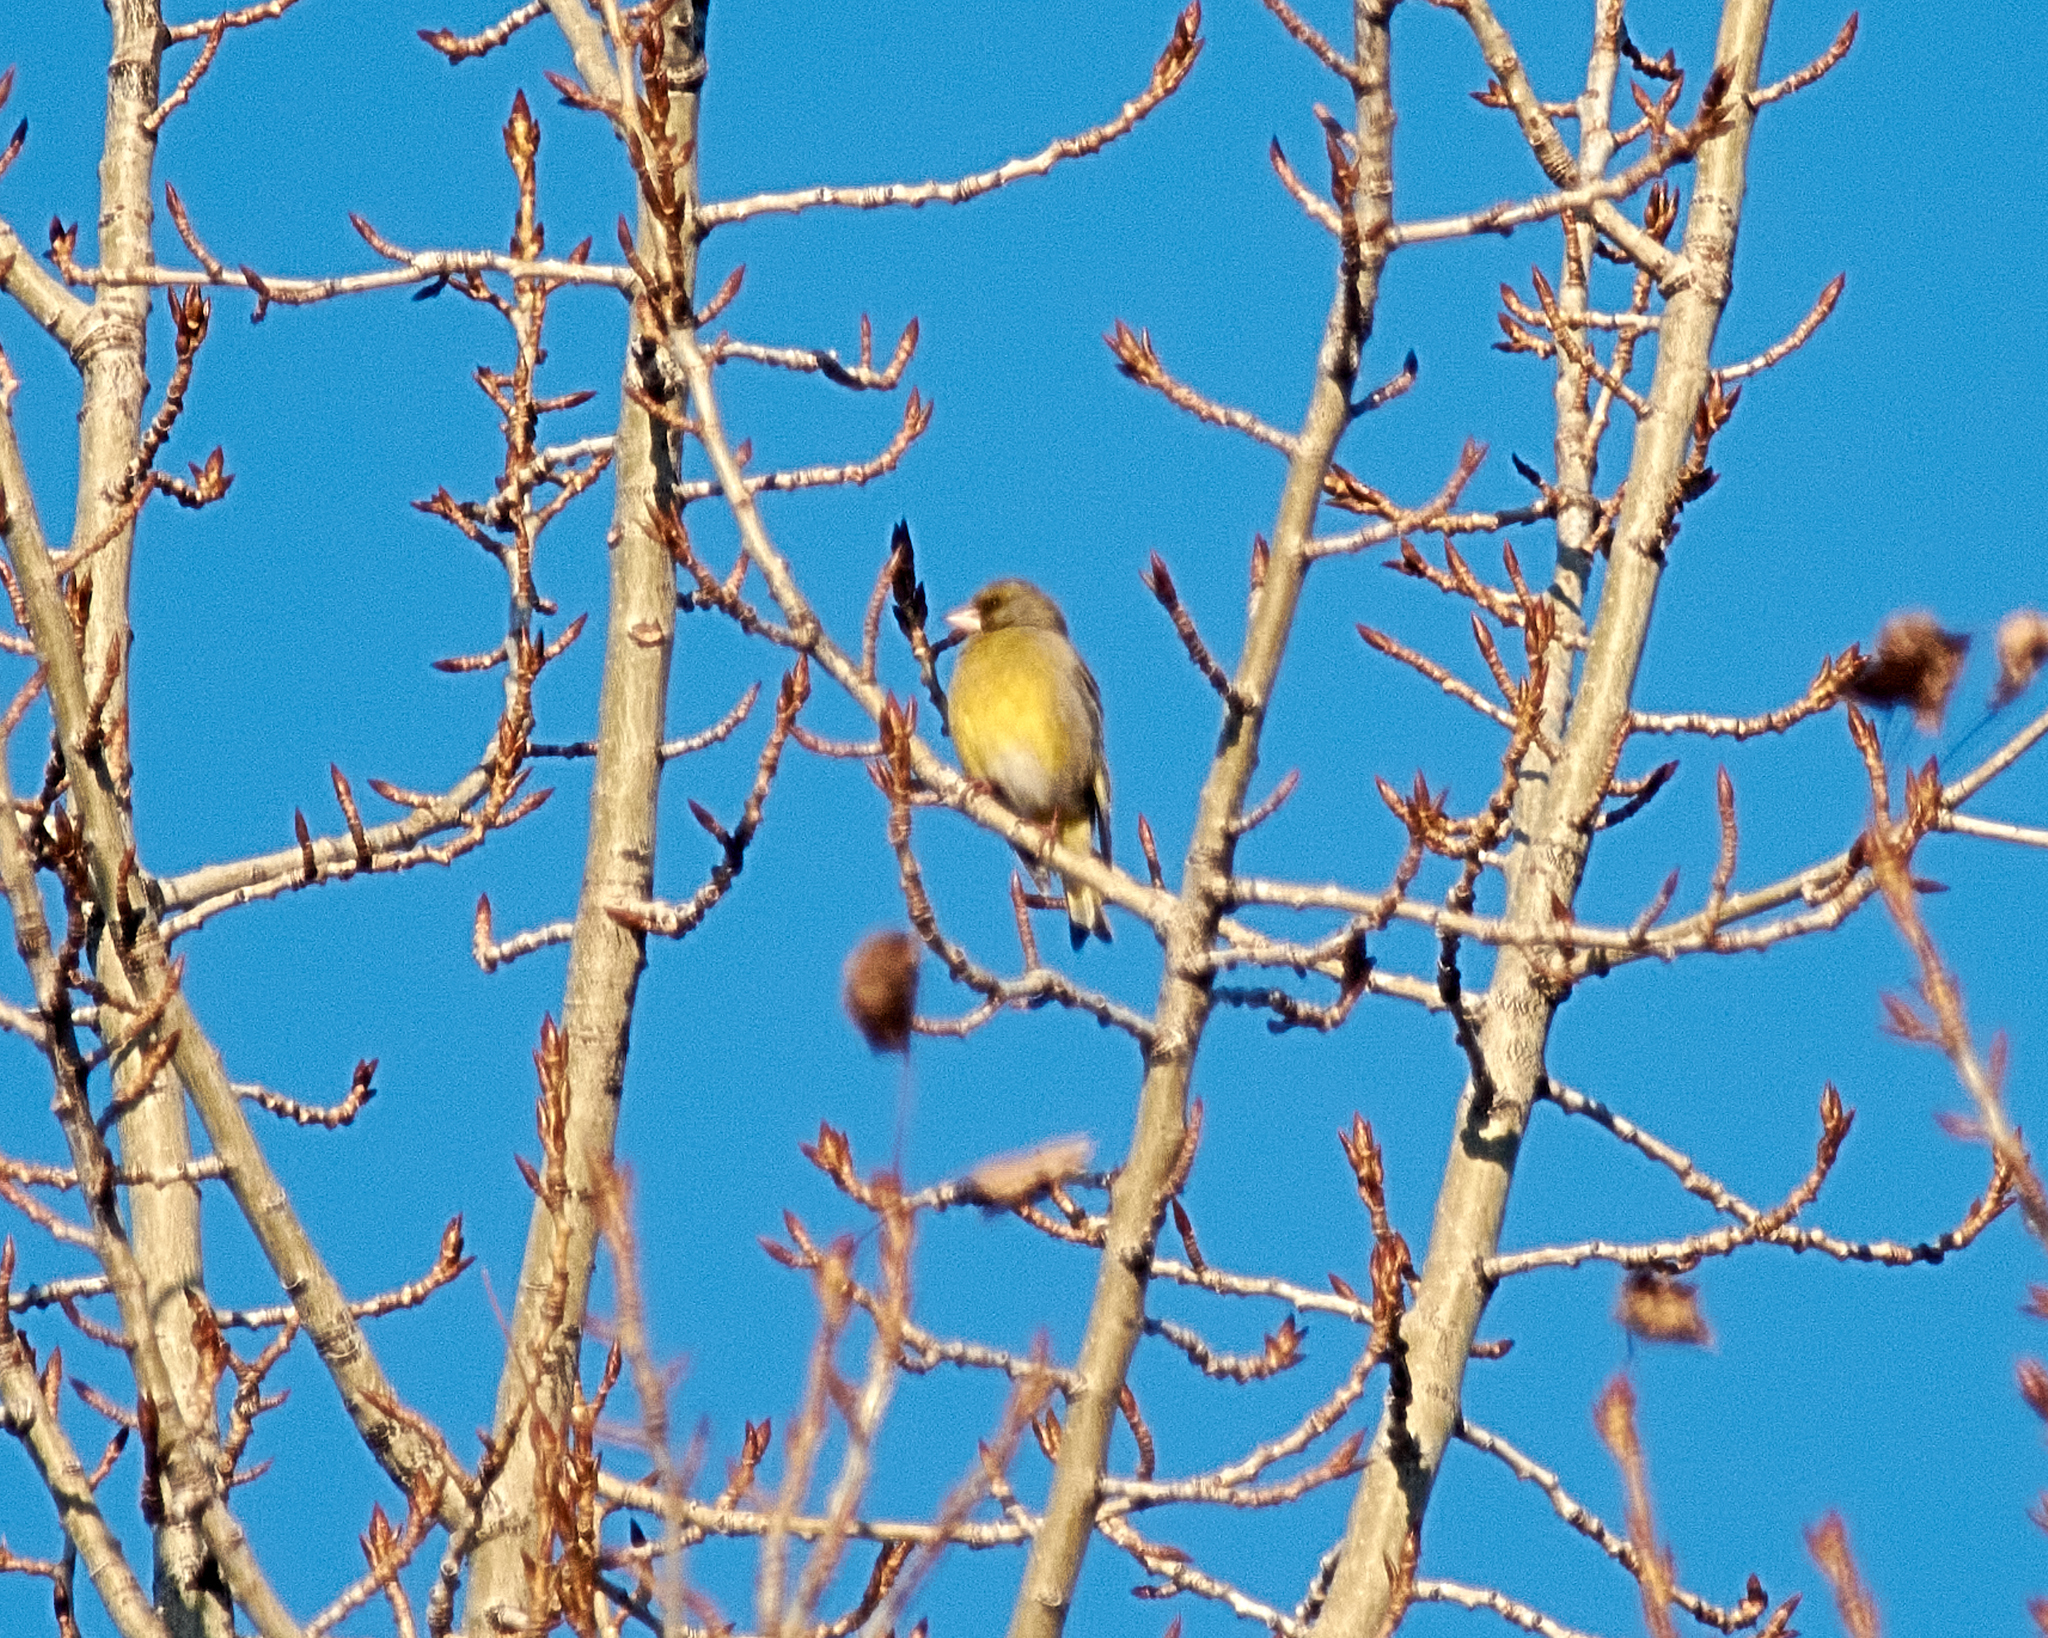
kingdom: Plantae
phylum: Tracheophyta
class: Liliopsida
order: Poales
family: Poaceae
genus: Chloris
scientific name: Chloris chloris
